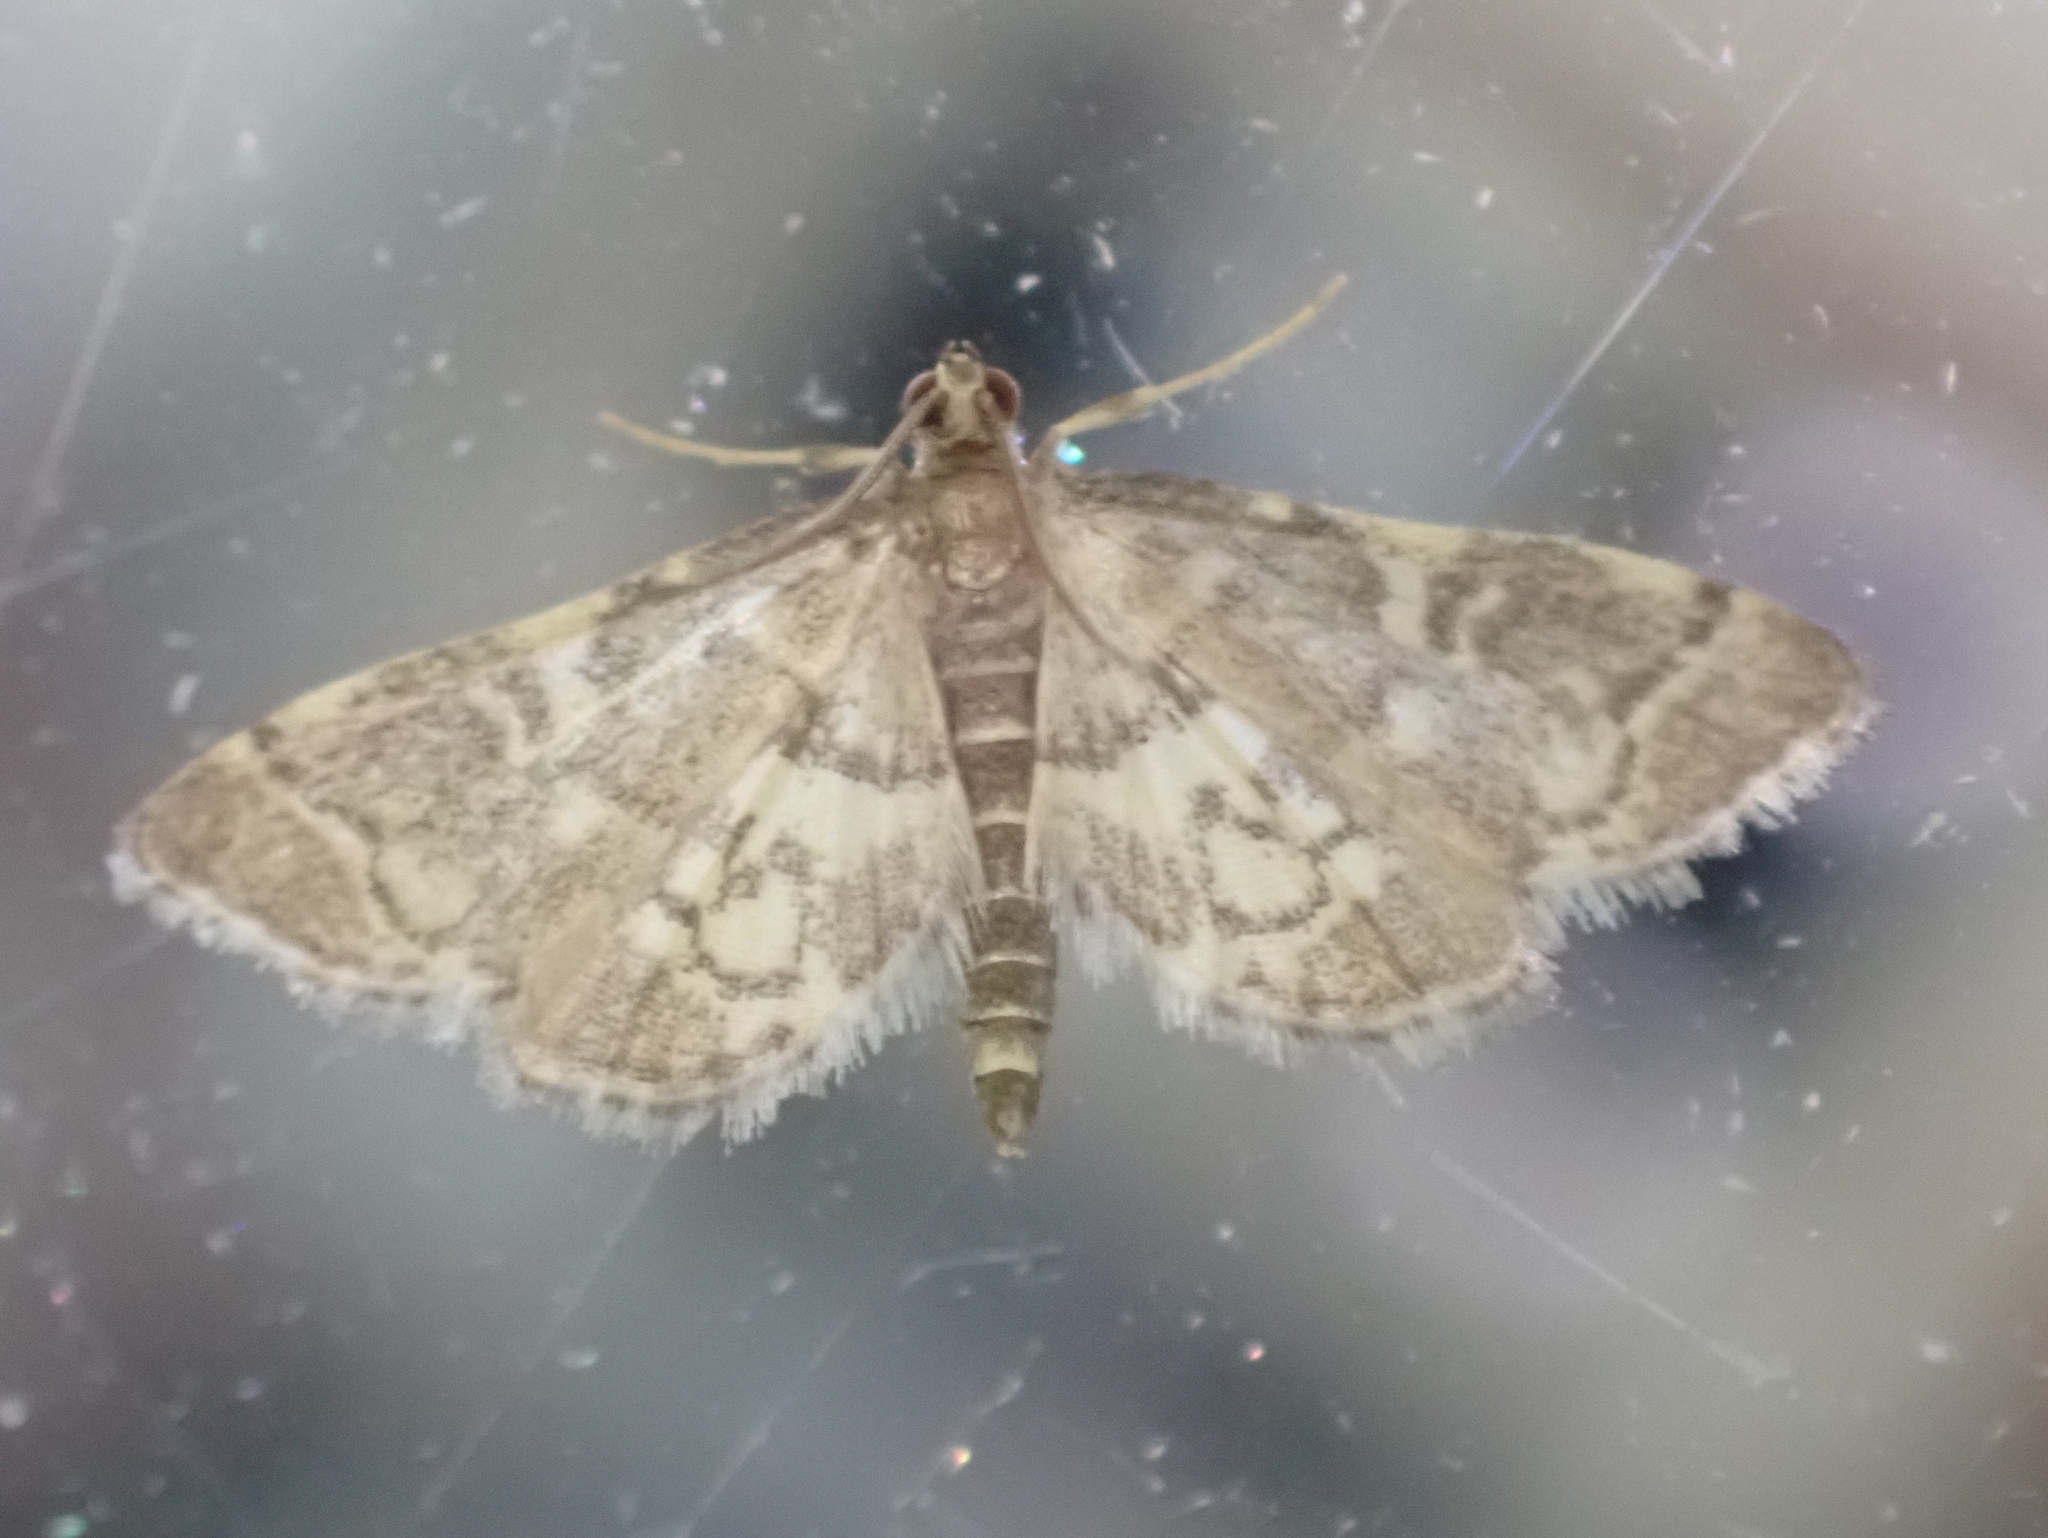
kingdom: Animalia
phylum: Arthropoda
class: Insecta
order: Lepidoptera
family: Crambidae
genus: Anageshna
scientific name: Anageshna primordialis
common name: Yellow-spotted webworm moth
